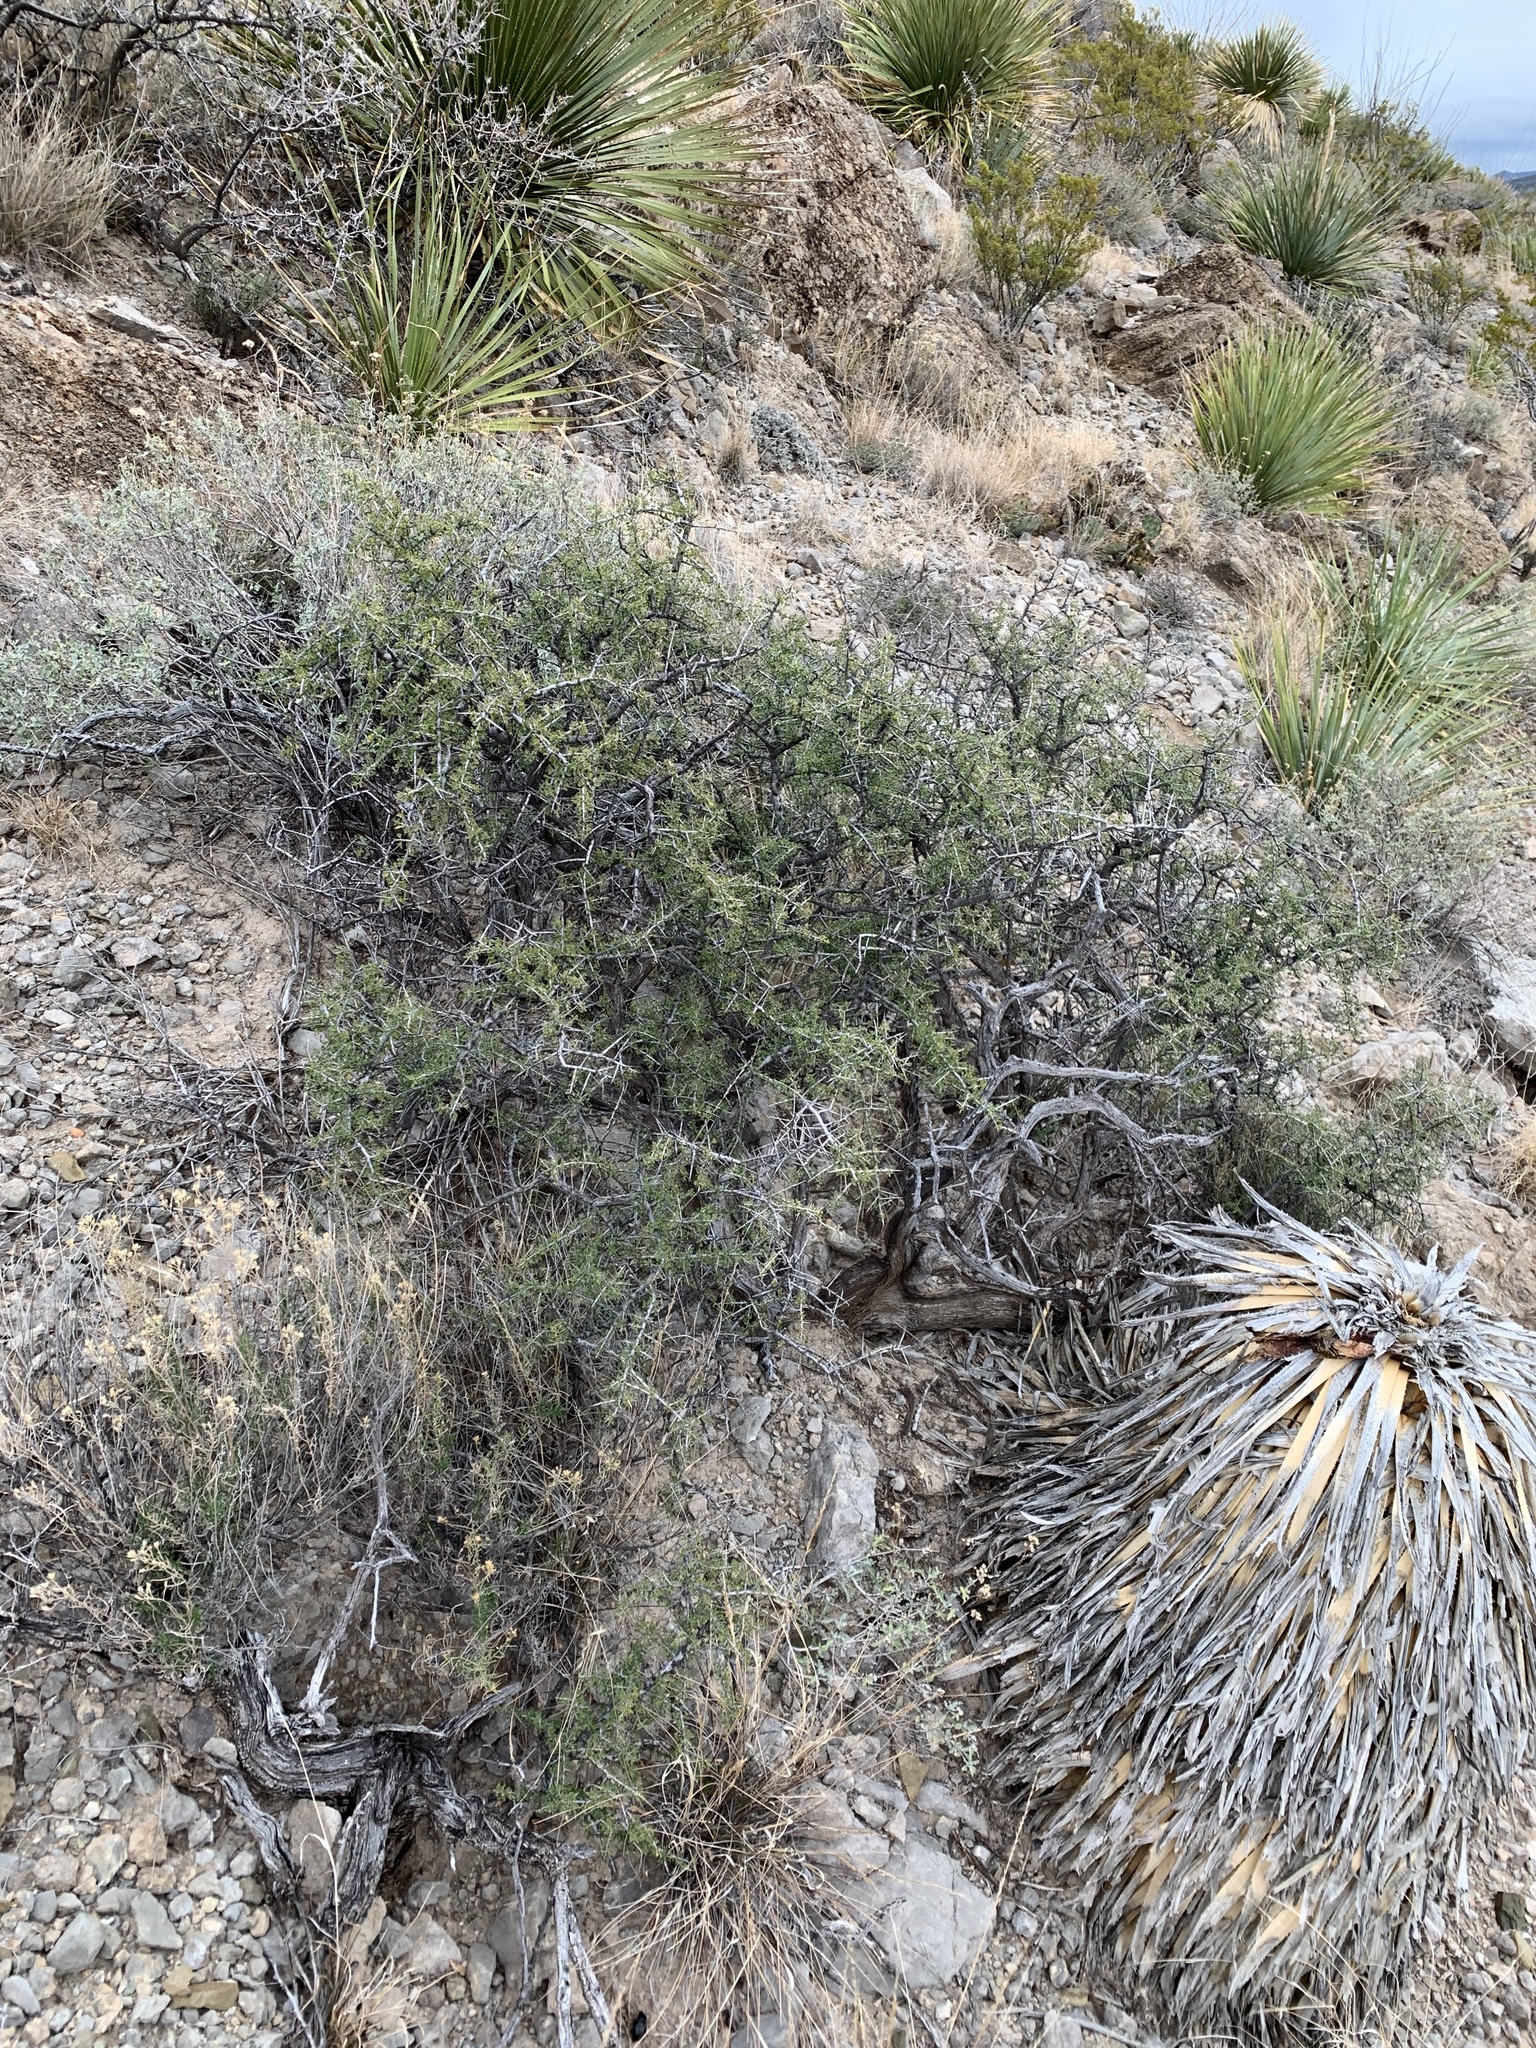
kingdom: Plantae
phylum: Tracheophyta
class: Magnoliopsida
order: Rosales
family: Rhamnaceae
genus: Condalia
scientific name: Condalia warnockii
